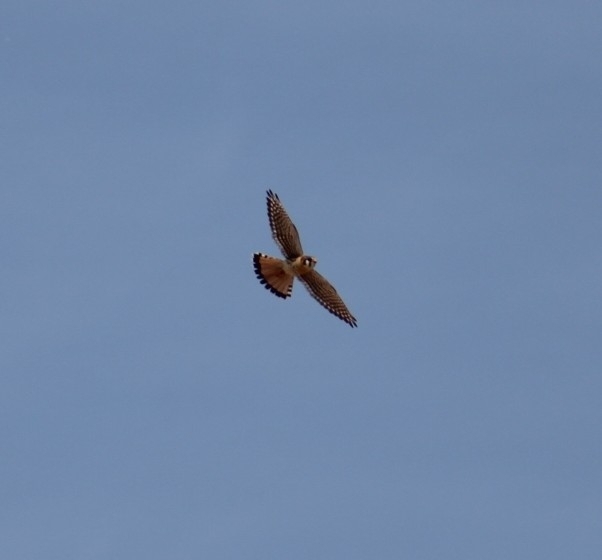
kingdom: Animalia
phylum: Chordata
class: Aves
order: Falconiformes
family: Falconidae
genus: Falco
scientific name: Falco sparverius
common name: American kestrel
